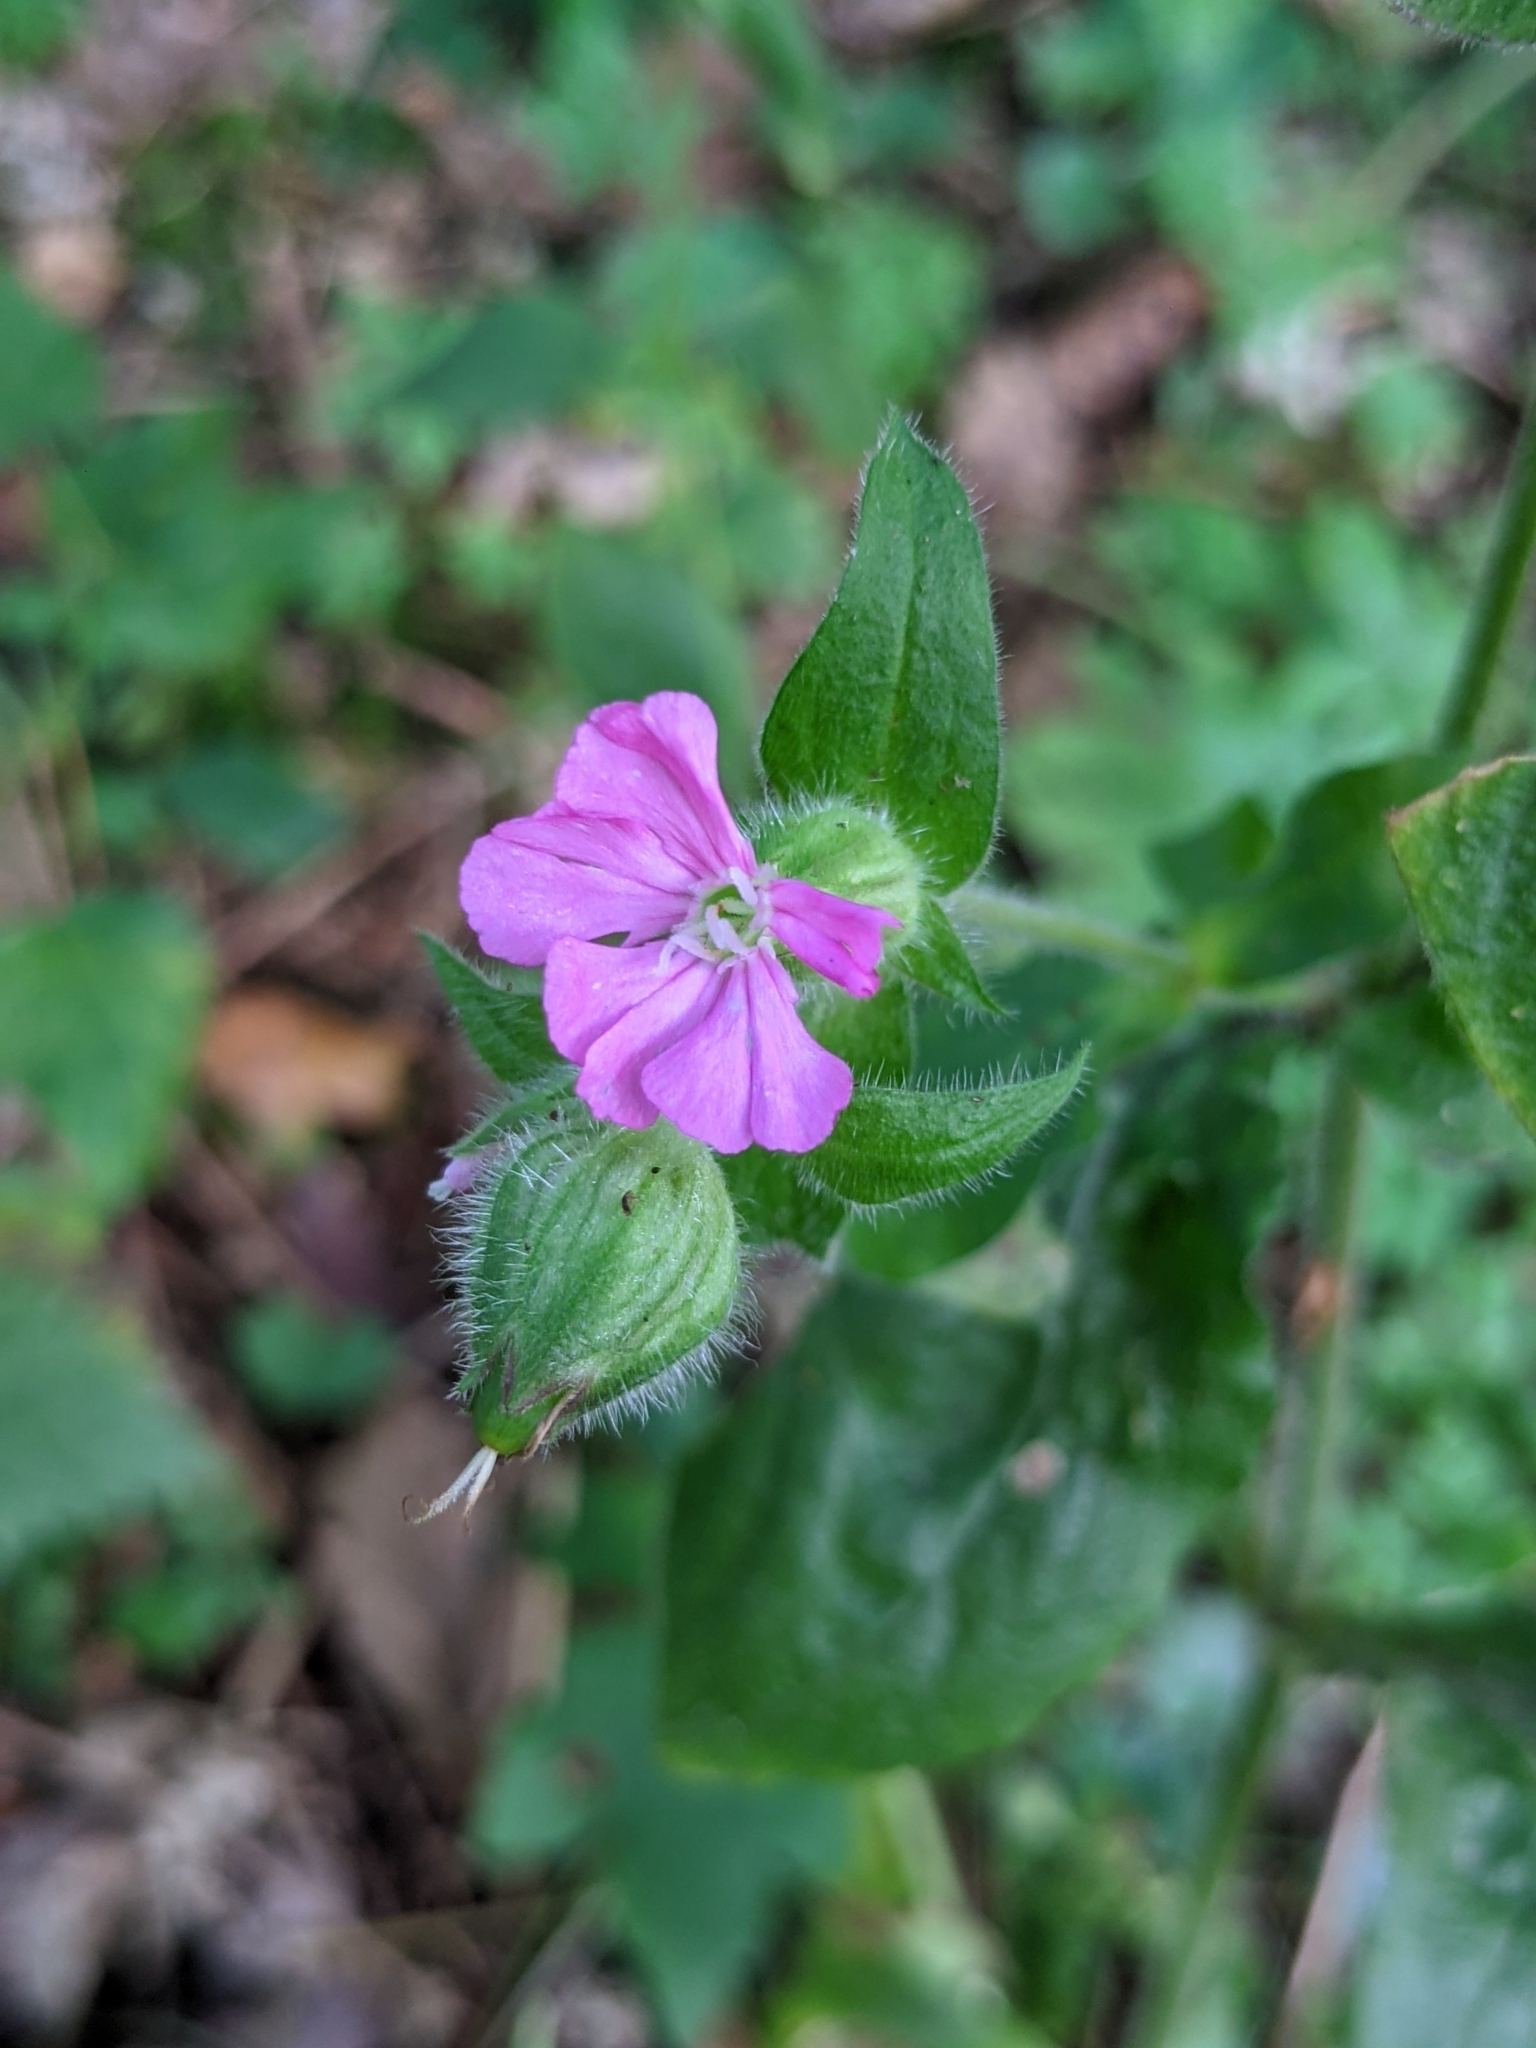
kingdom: Plantae
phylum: Tracheophyta
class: Magnoliopsida
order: Caryophyllales
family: Caryophyllaceae
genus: Silene
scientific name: Silene dioica
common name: Red campion
